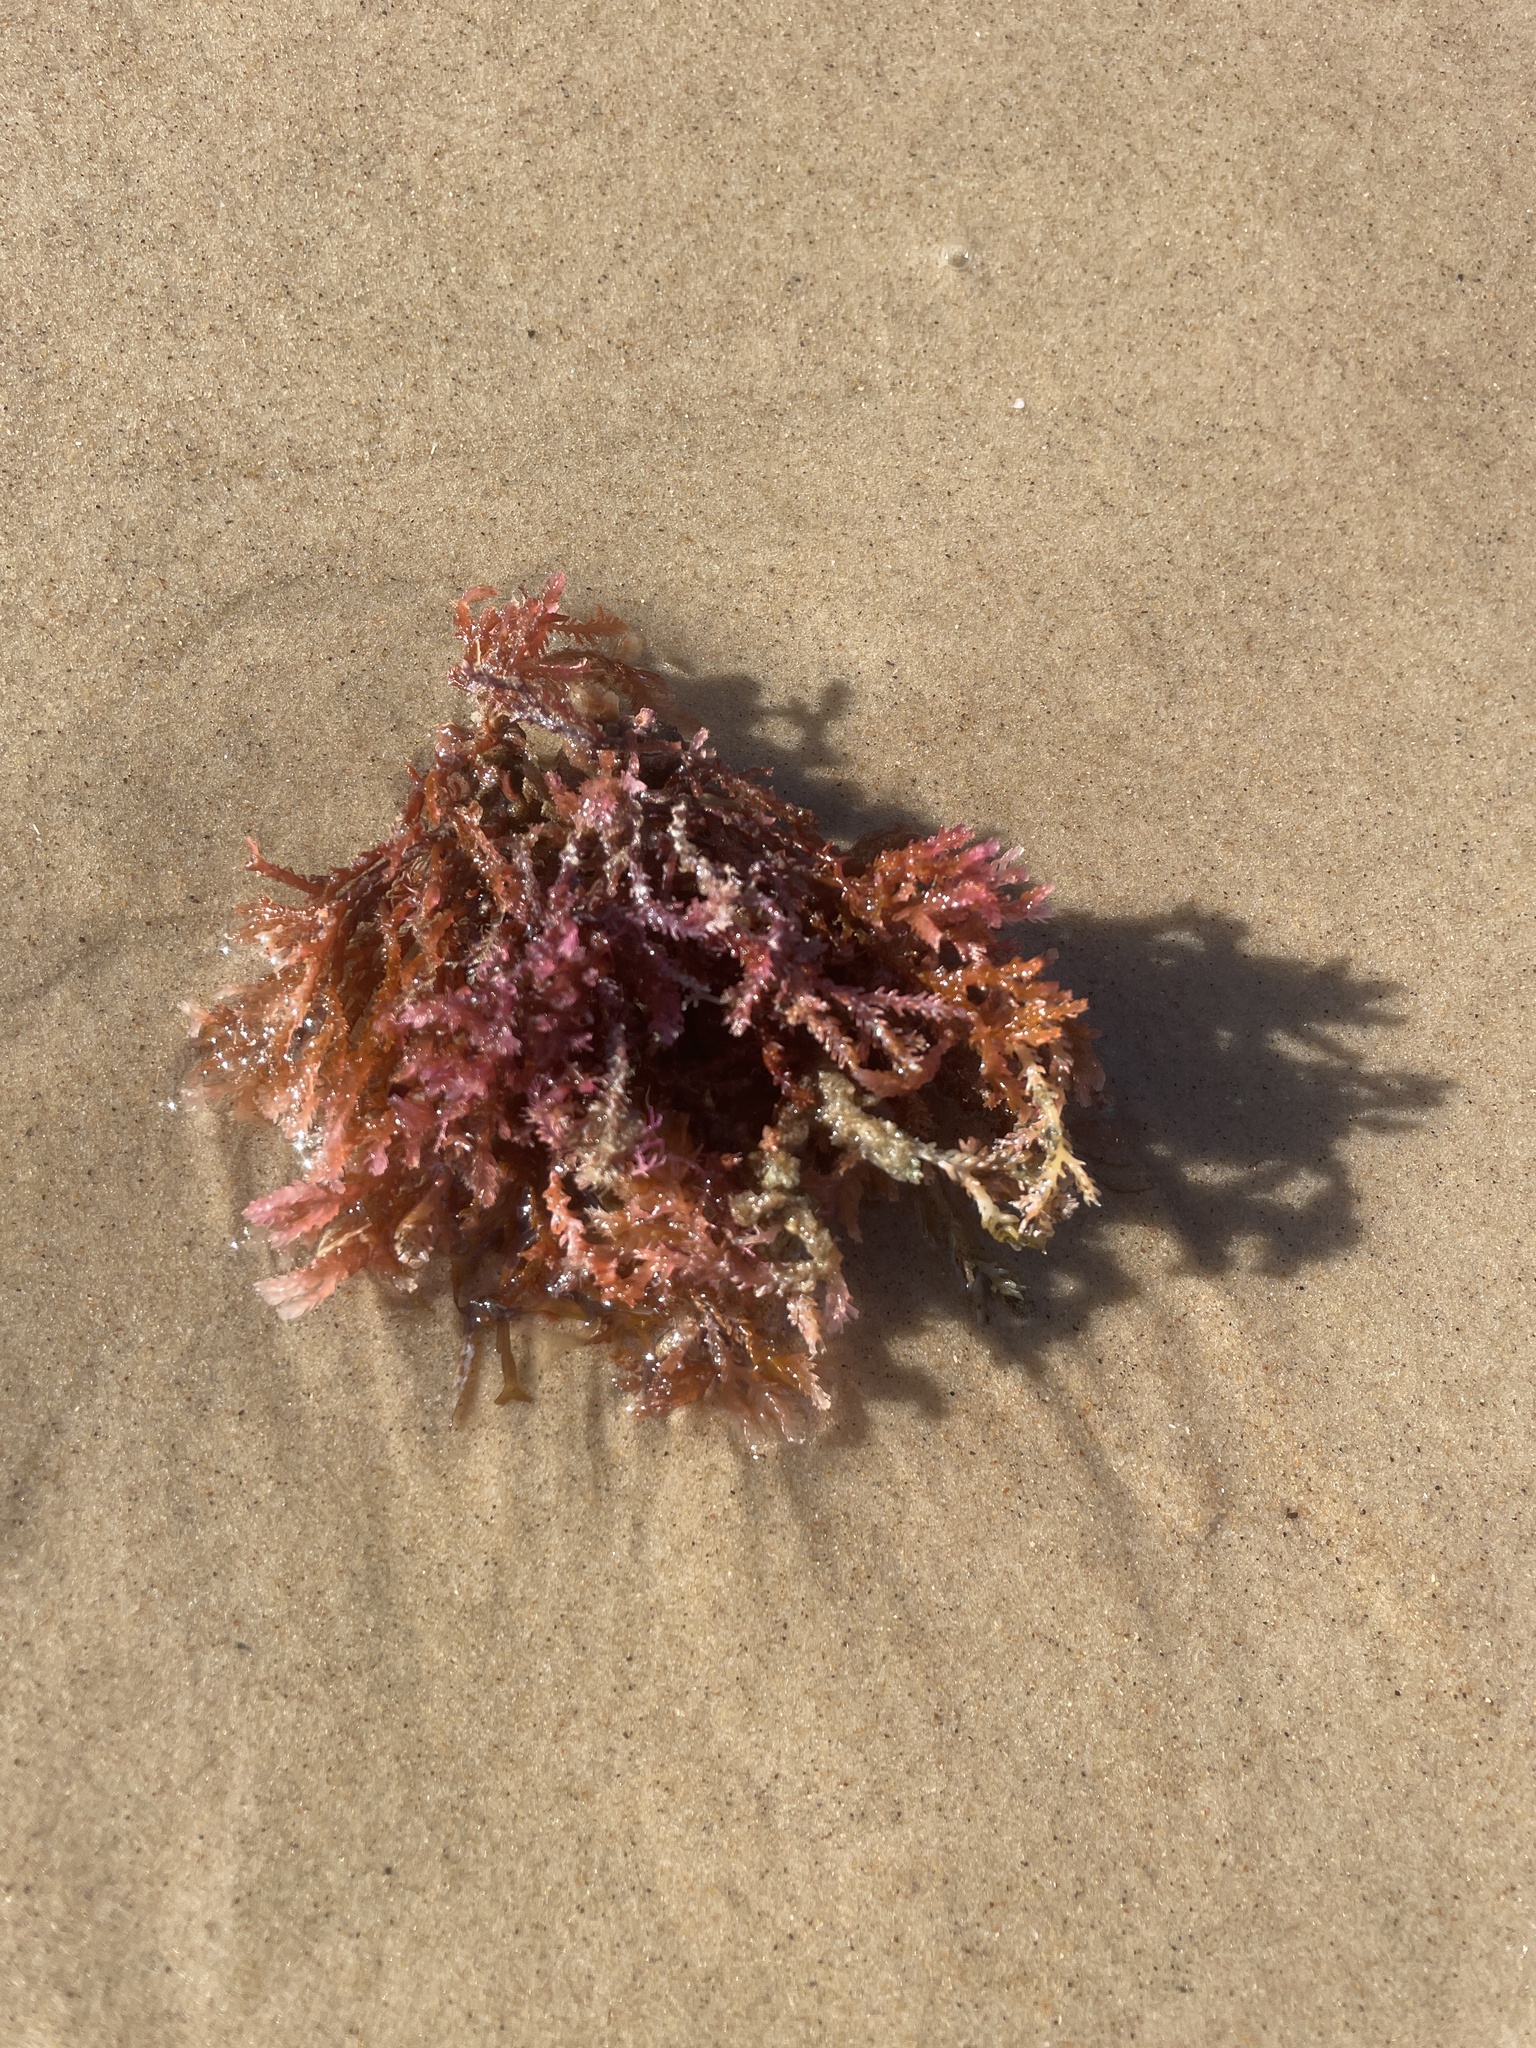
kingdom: Plantae
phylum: Rhodophyta
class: Florideophyceae
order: Ceramiales
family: Rhodomelaceae
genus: Alsidium
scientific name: Alsidium triquetrum
